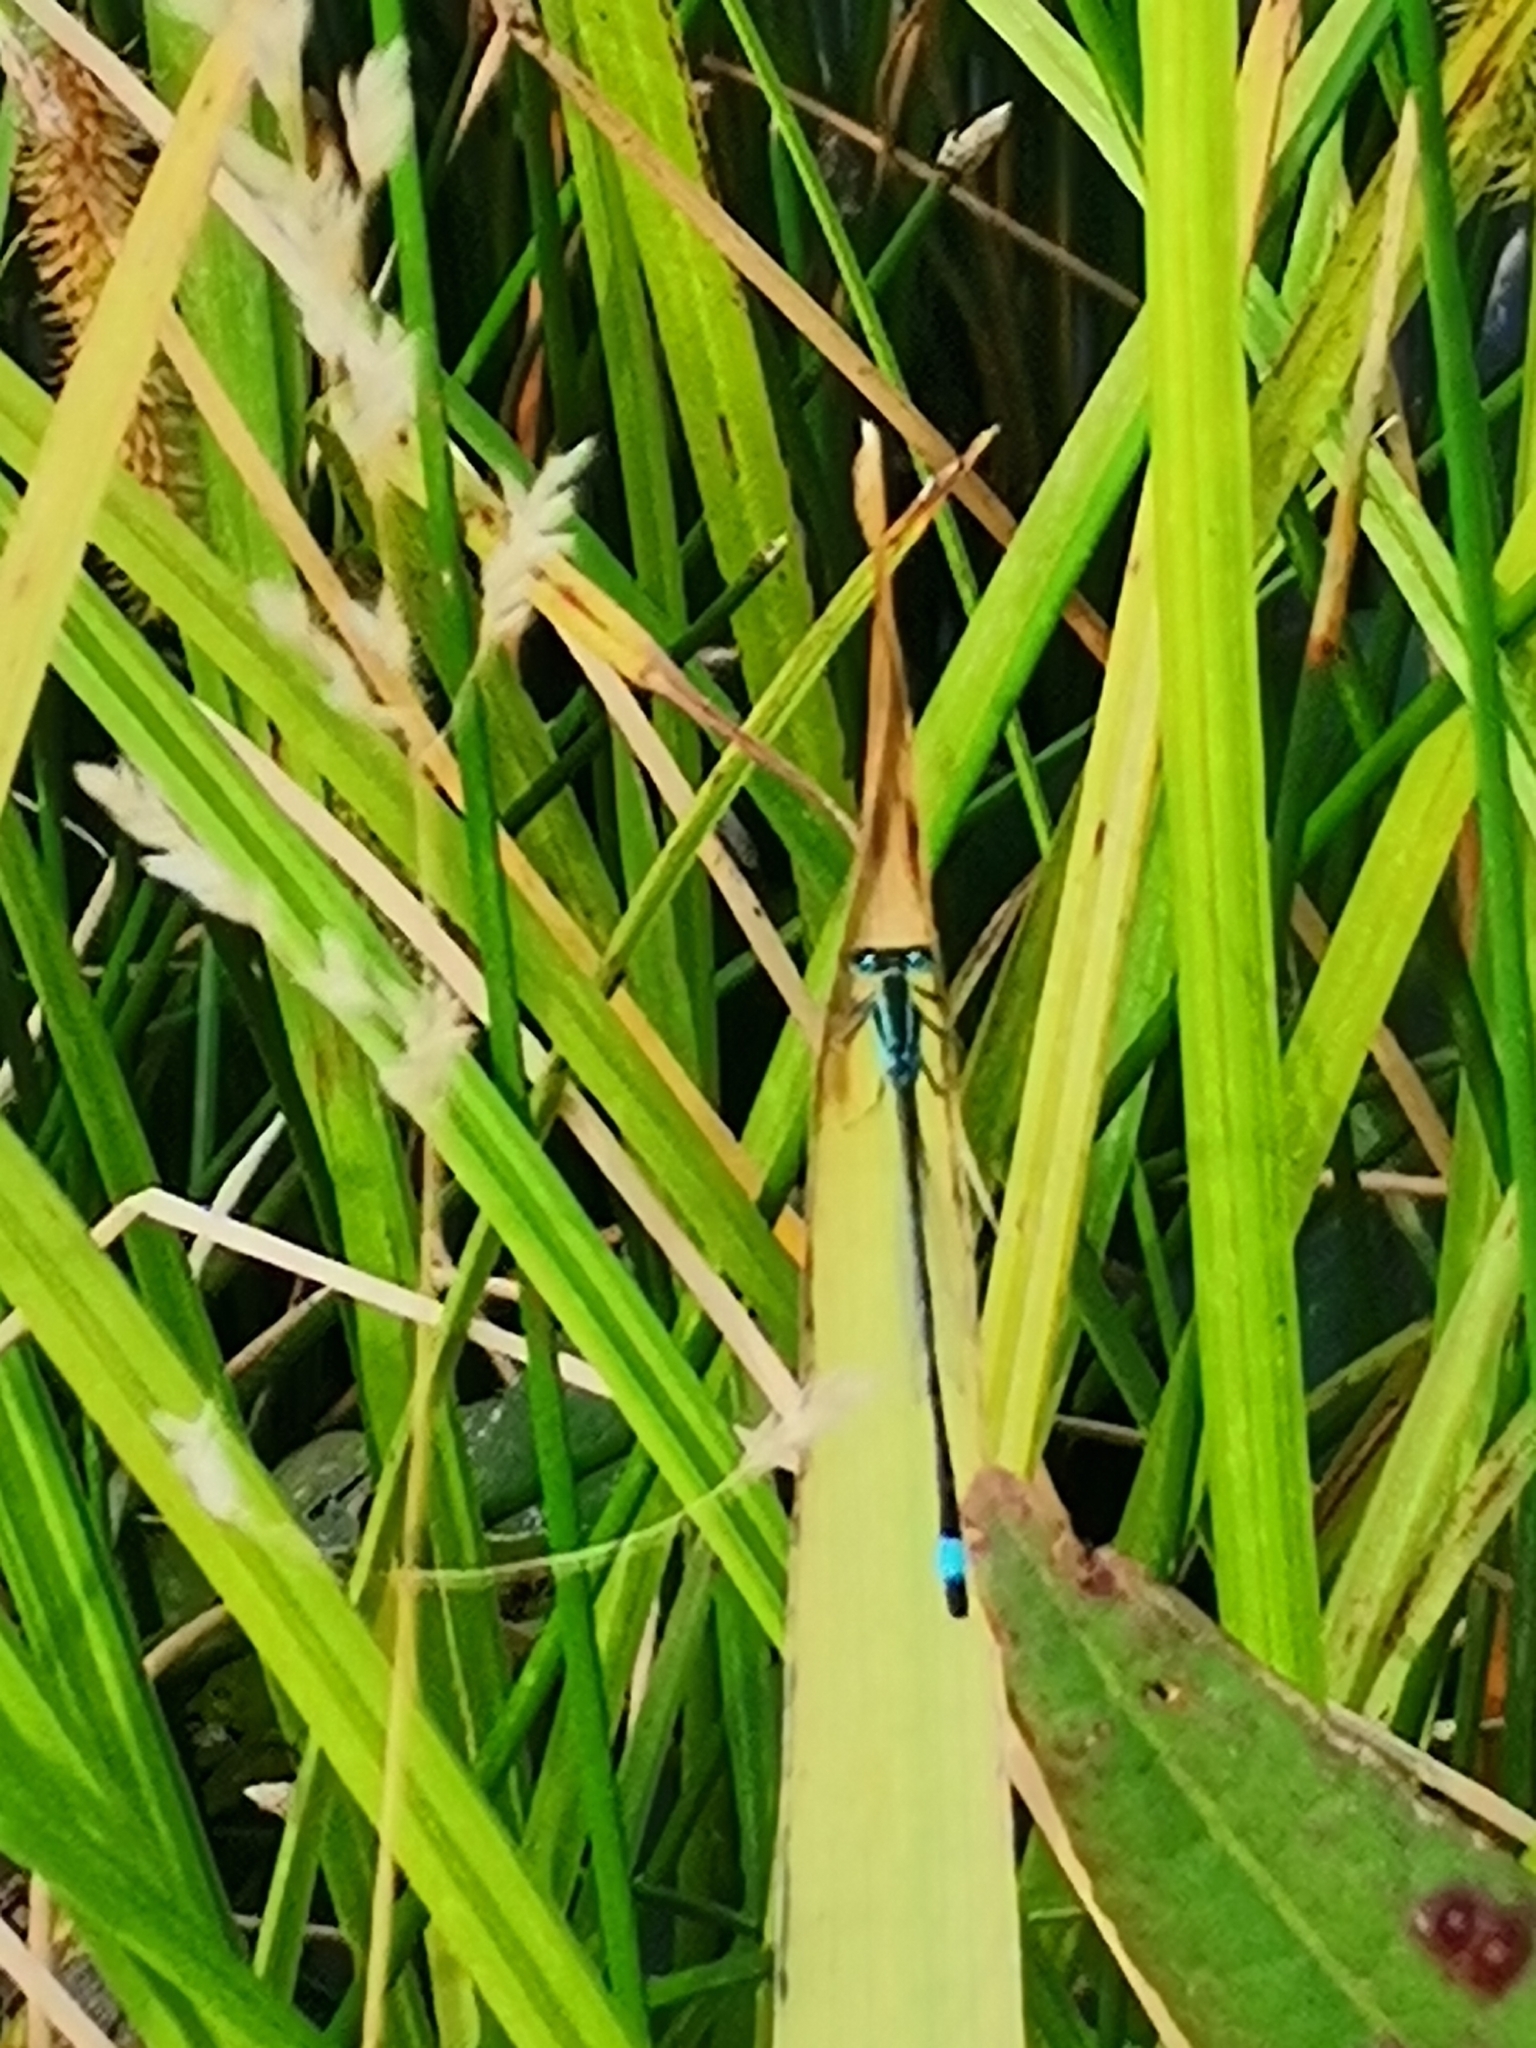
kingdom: Animalia
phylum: Arthropoda
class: Insecta
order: Odonata
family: Coenagrionidae
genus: Ischnura
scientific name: Ischnura elegans
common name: Blue-tailed damselfly
